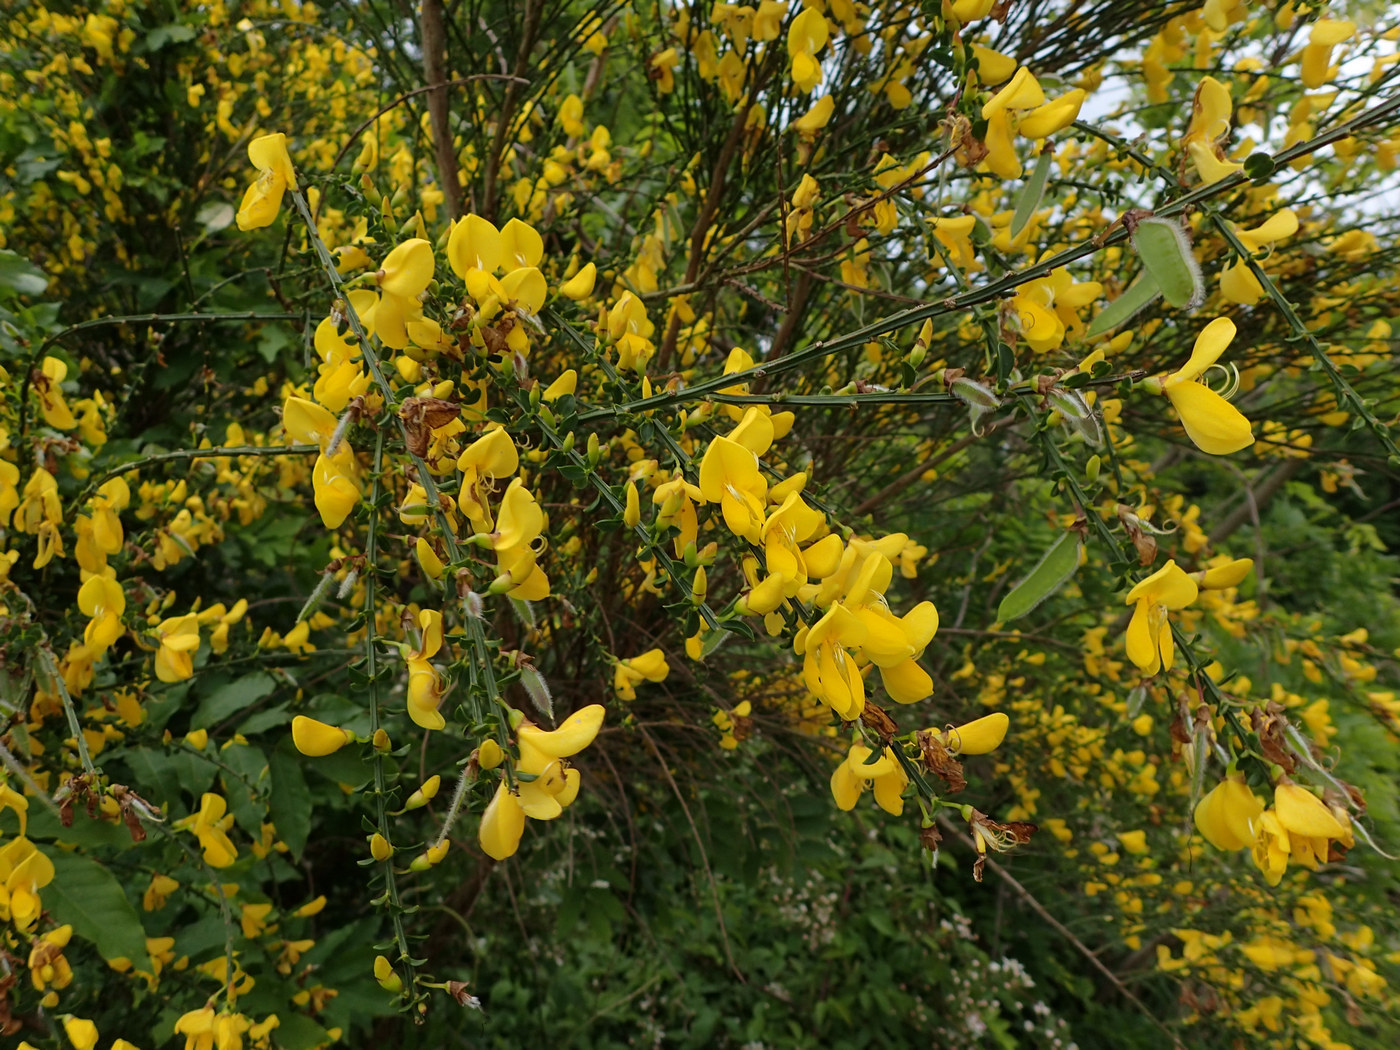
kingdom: Plantae
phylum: Tracheophyta
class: Magnoliopsida
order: Fabales
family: Fabaceae
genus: Cytisus
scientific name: Cytisus scoparius
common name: Scotch broom
